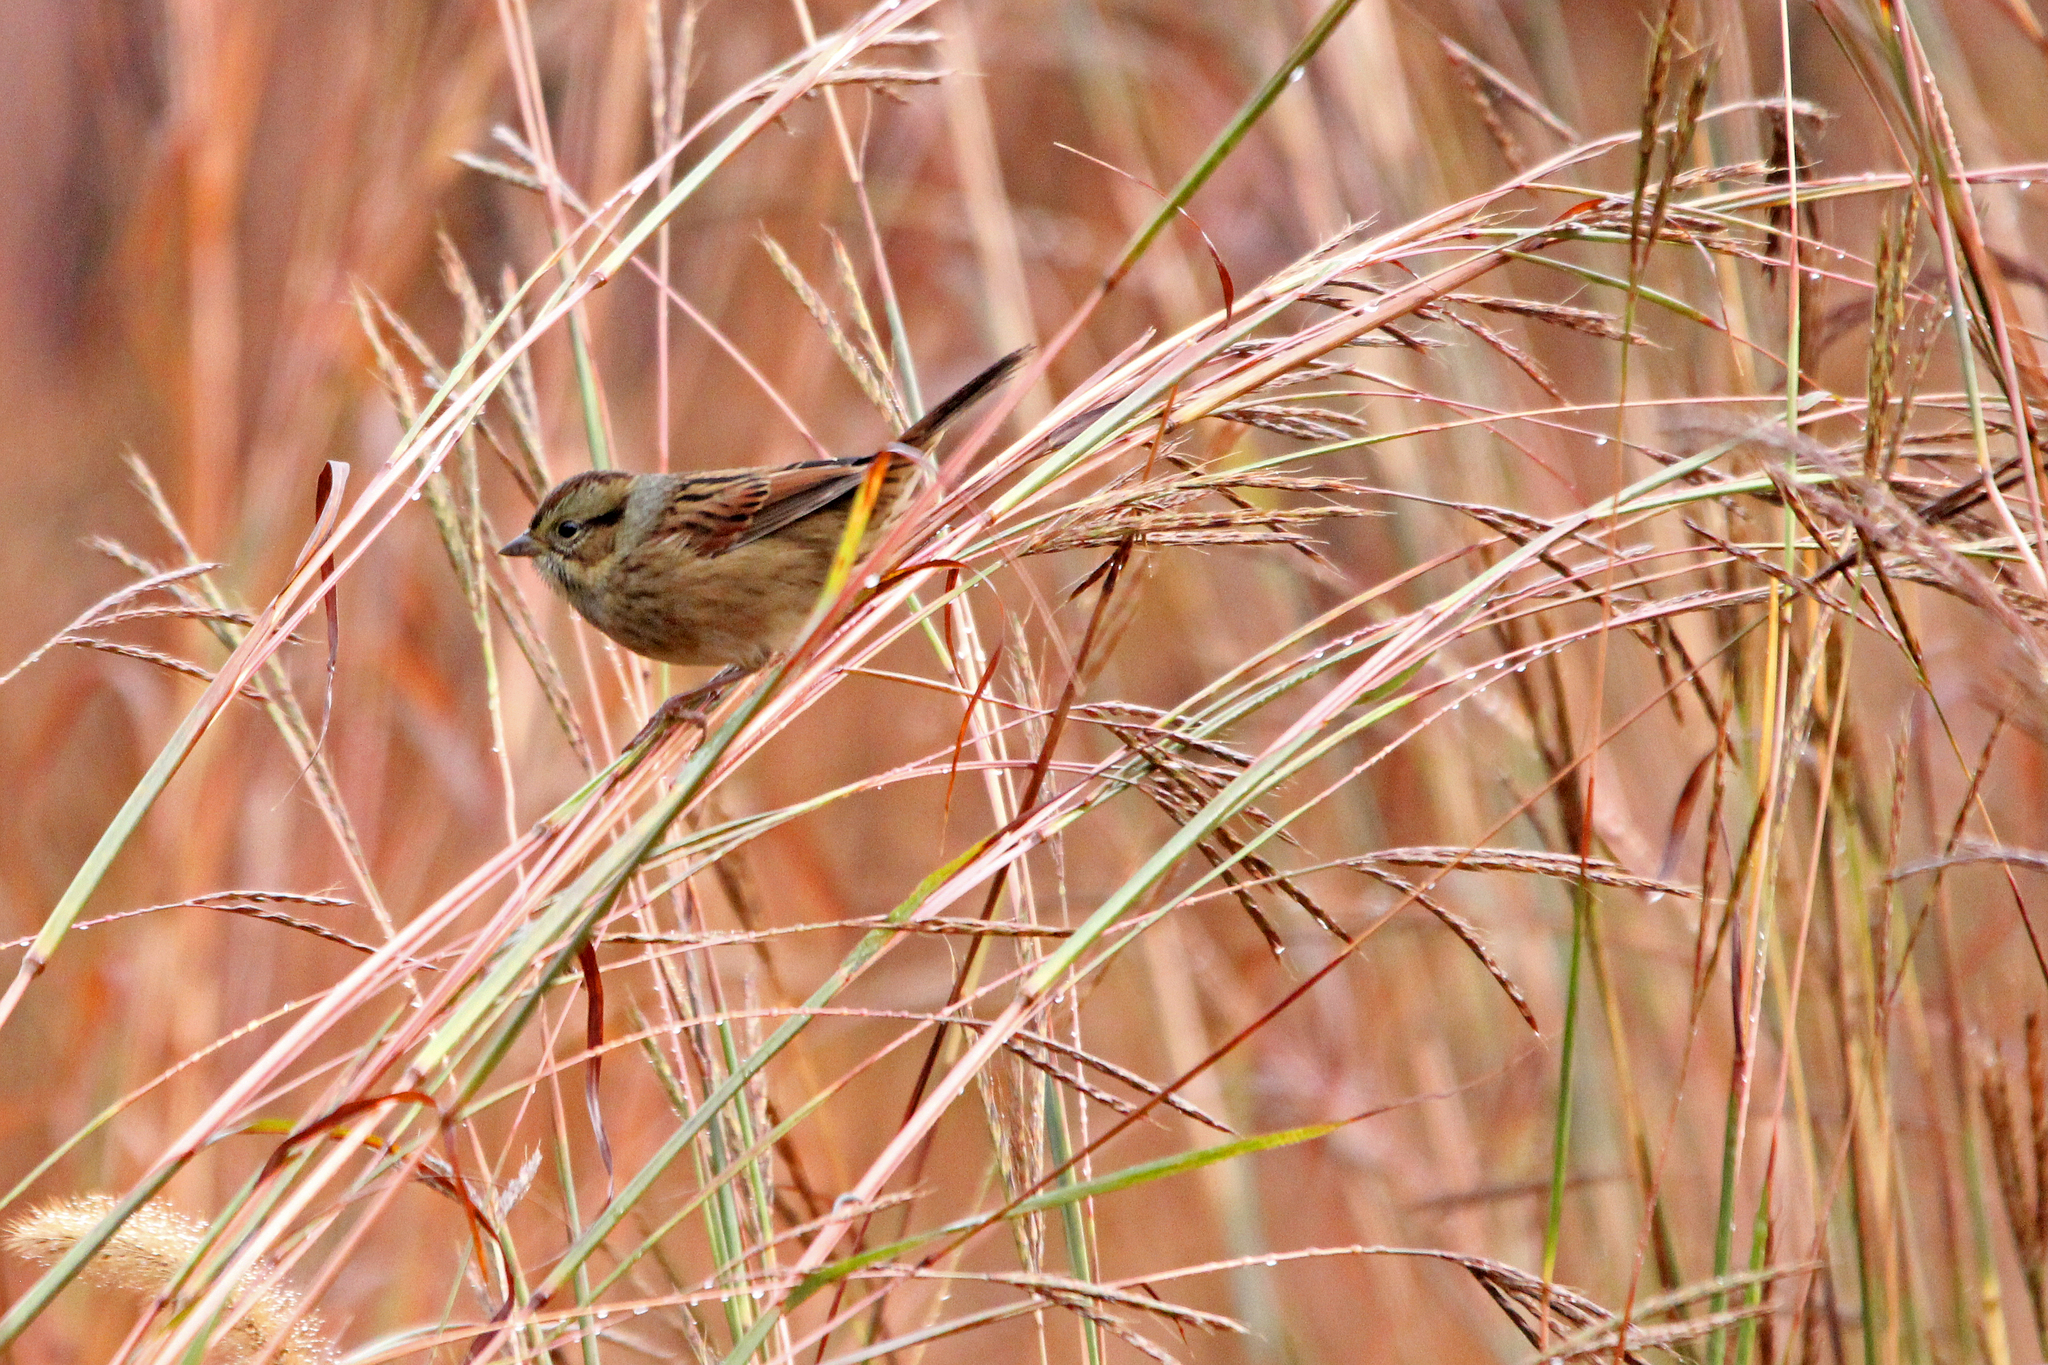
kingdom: Animalia
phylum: Chordata
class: Aves
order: Passeriformes
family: Passerellidae
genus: Melospiza
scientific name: Melospiza georgiana
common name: Swamp sparrow
